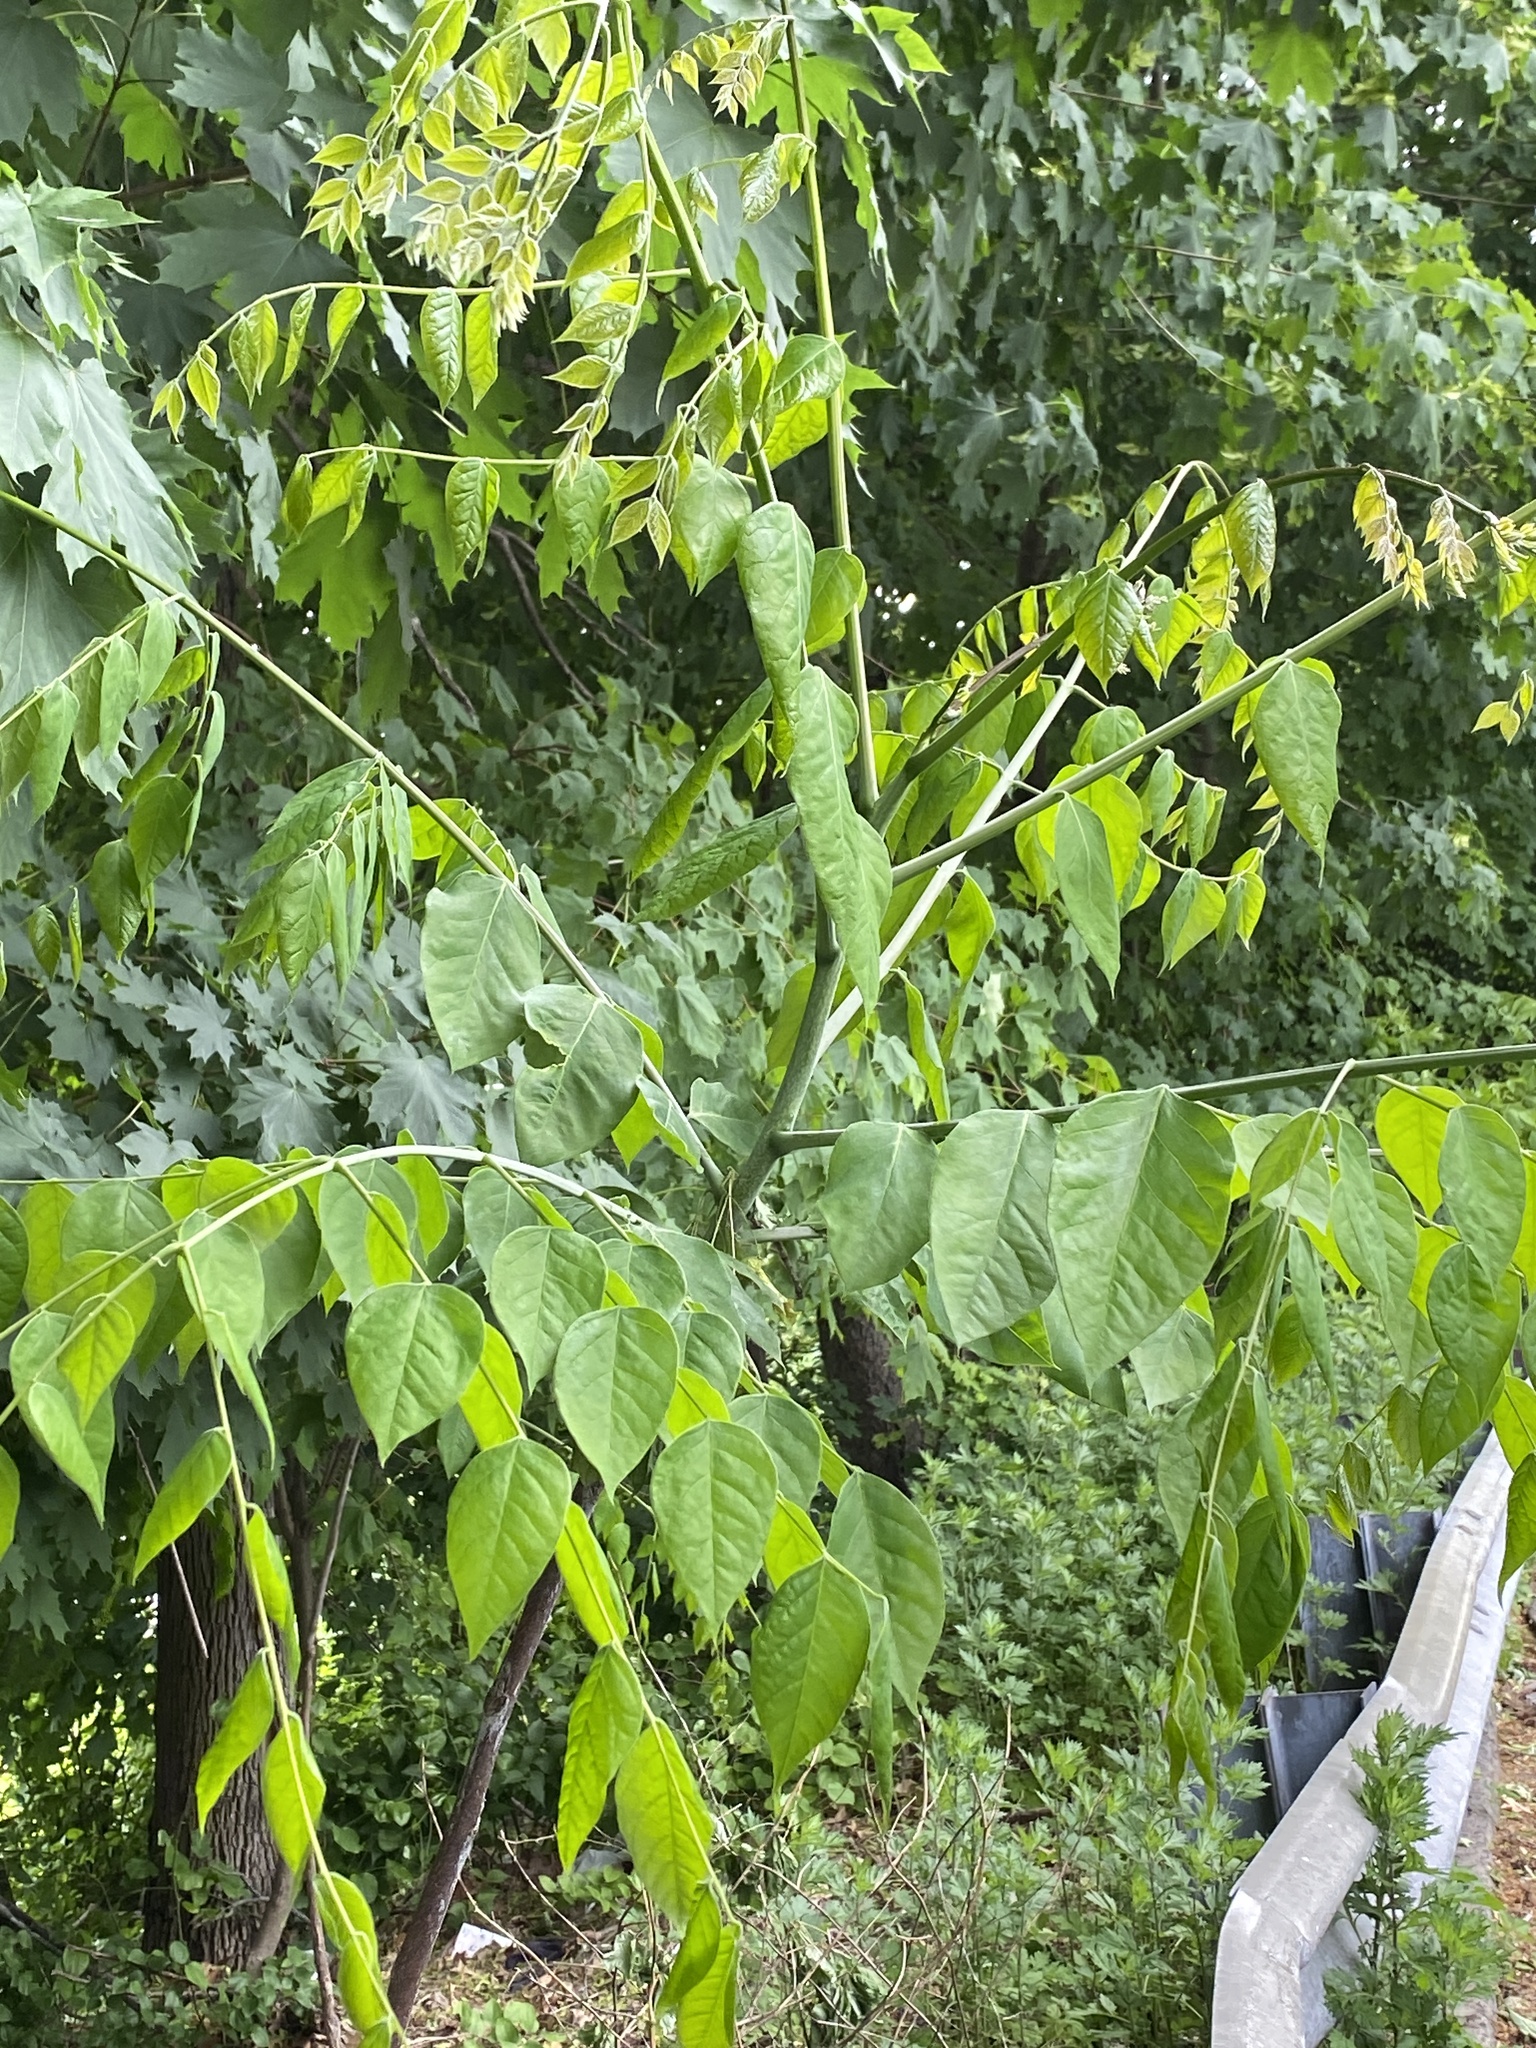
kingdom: Plantae
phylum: Tracheophyta
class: Magnoliopsida
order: Fabales
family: Fabaceae
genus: Gymnocladus
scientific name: Gymnocladus dioicus
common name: Kentucky coffee-tree
